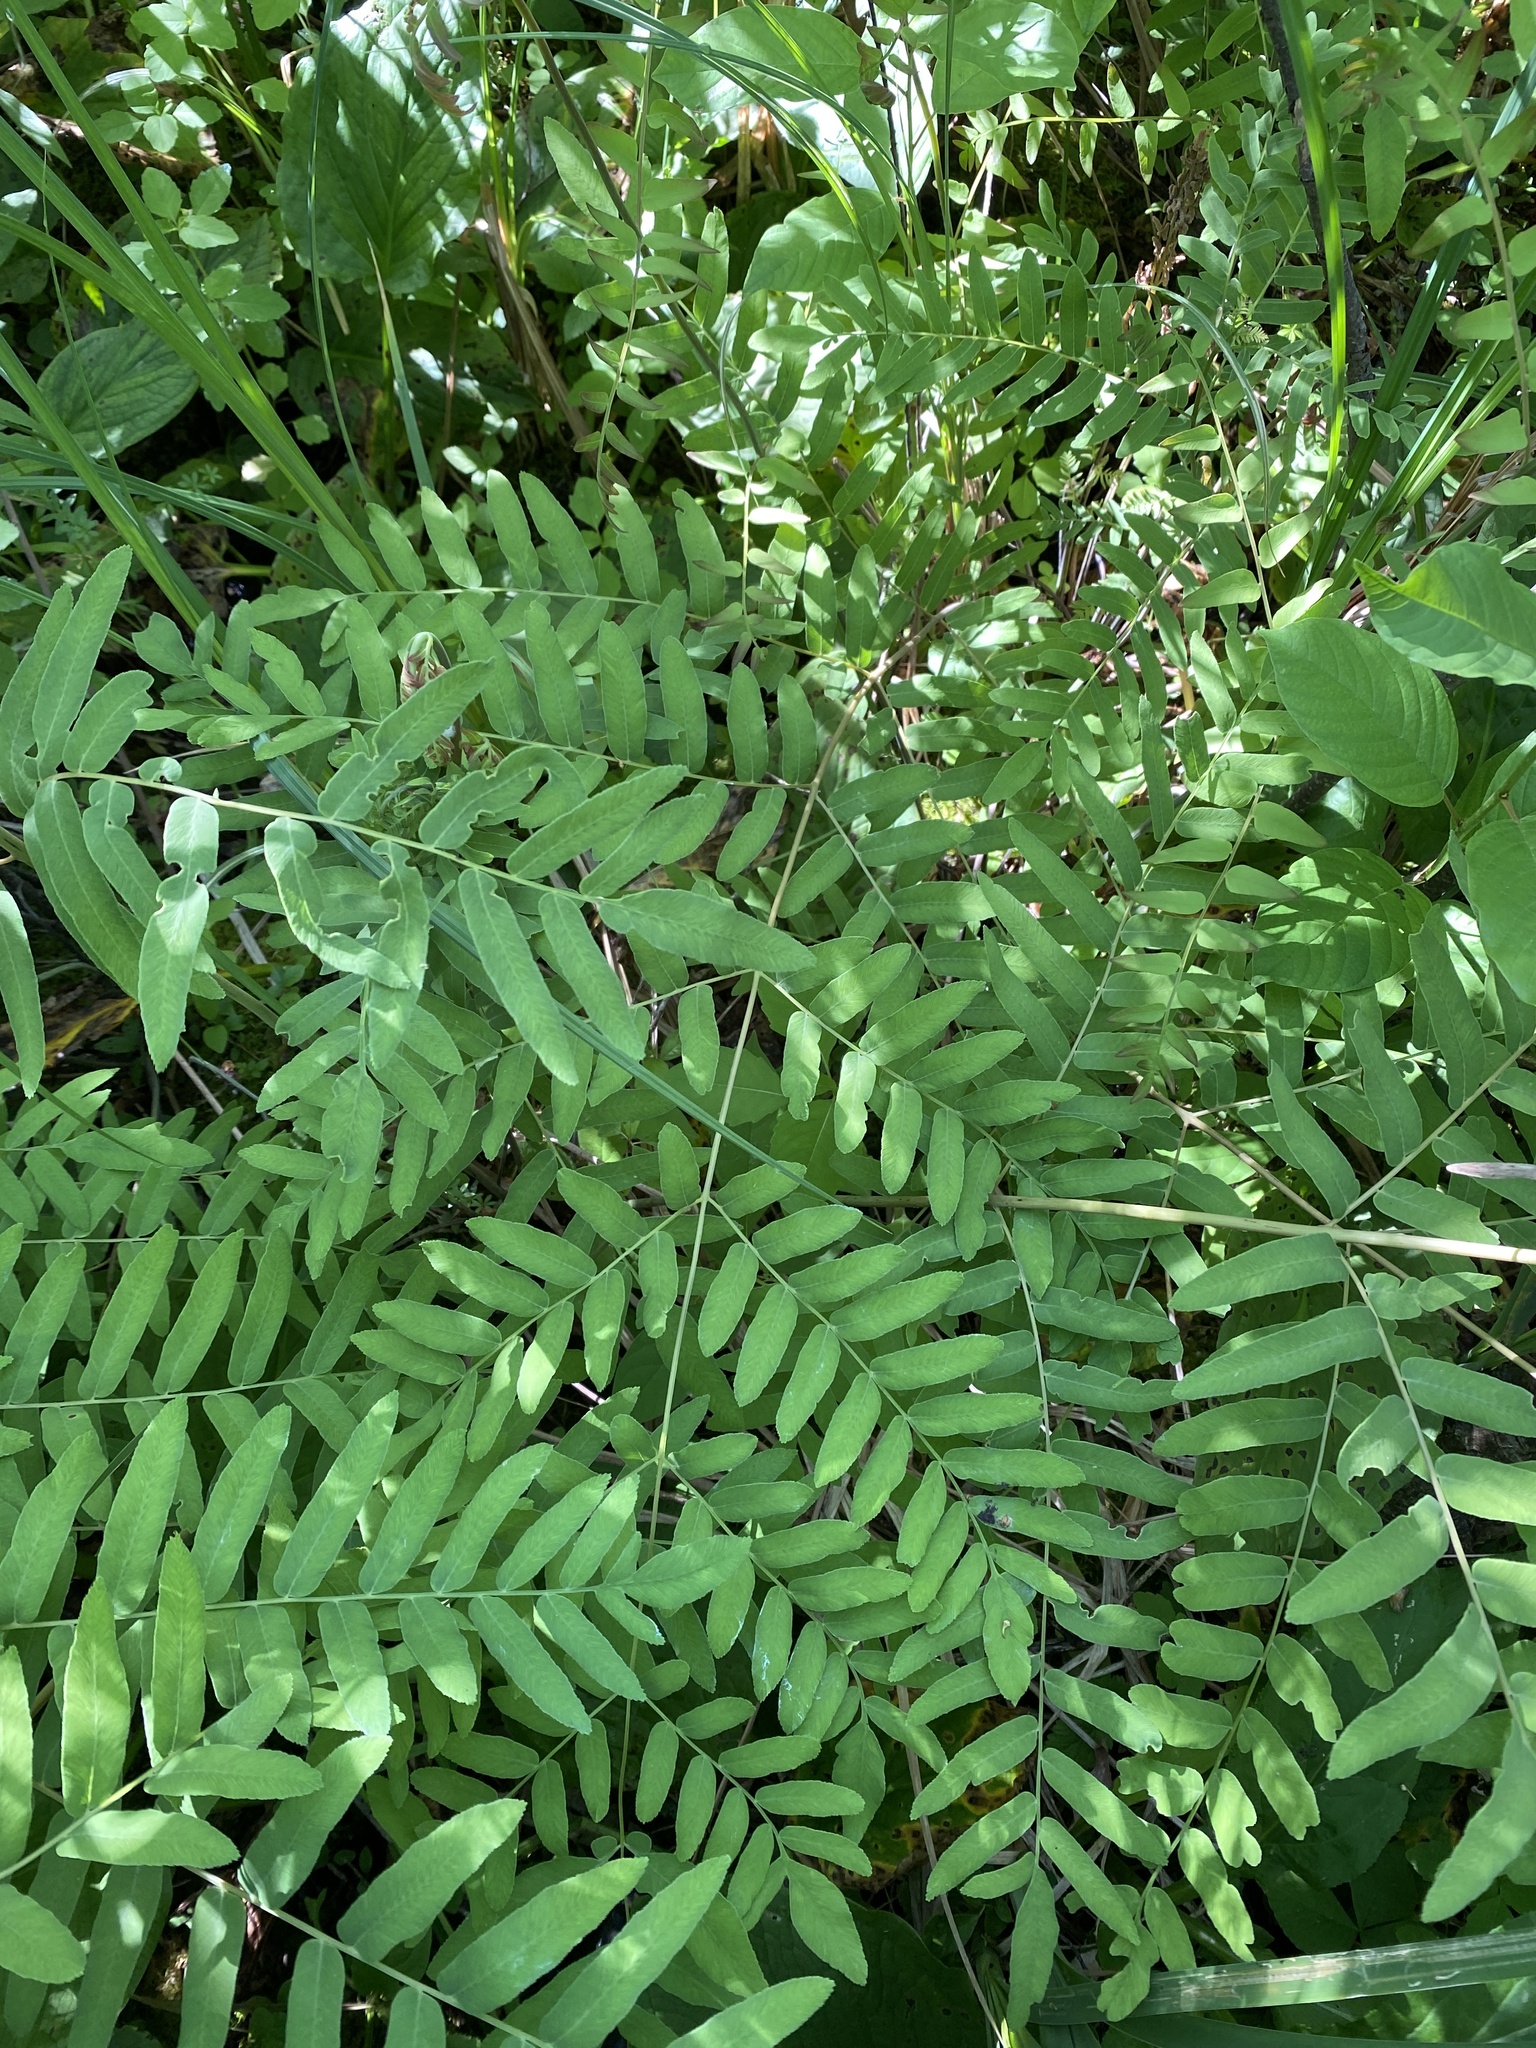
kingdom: Plantae
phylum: Tracheophyta
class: Polypodiopsida
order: Osmundales
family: Osmundaceae
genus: Osmunda
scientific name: Osmunda spectabilis
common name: American royal fern
